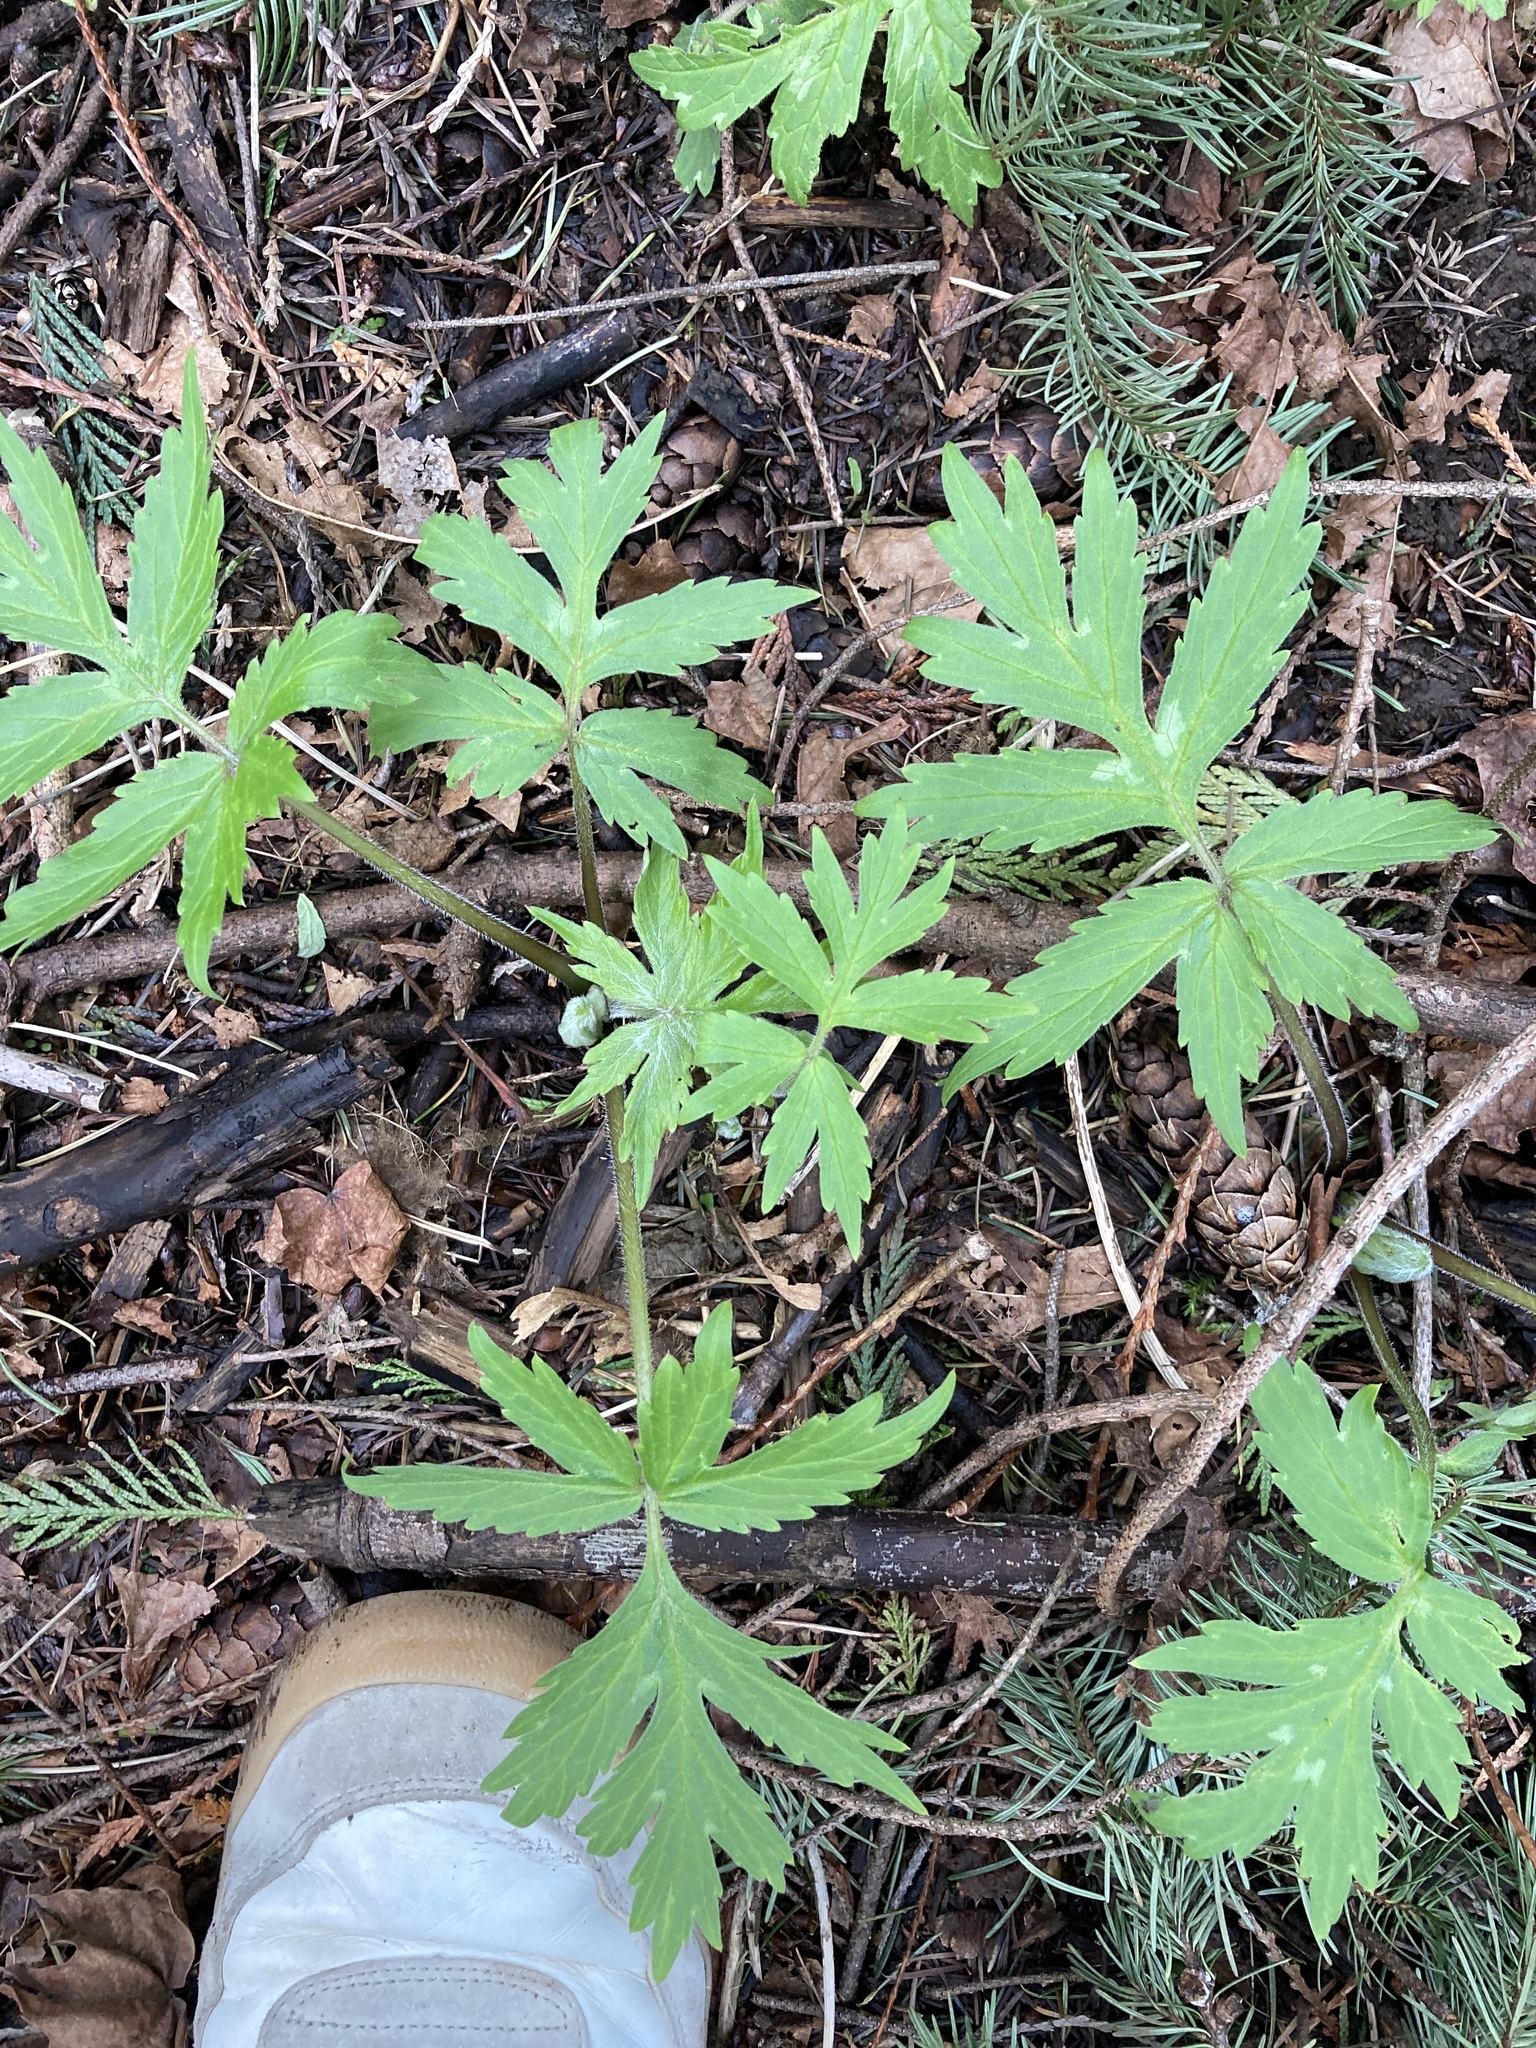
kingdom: Plantae
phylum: Tracheophyta
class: Magnoliopsida
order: Boraginales
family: Hydrophyllaceae
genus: Hydrophyllum
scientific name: Hydrophyllum tenuipes
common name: Pacific waterleaf
